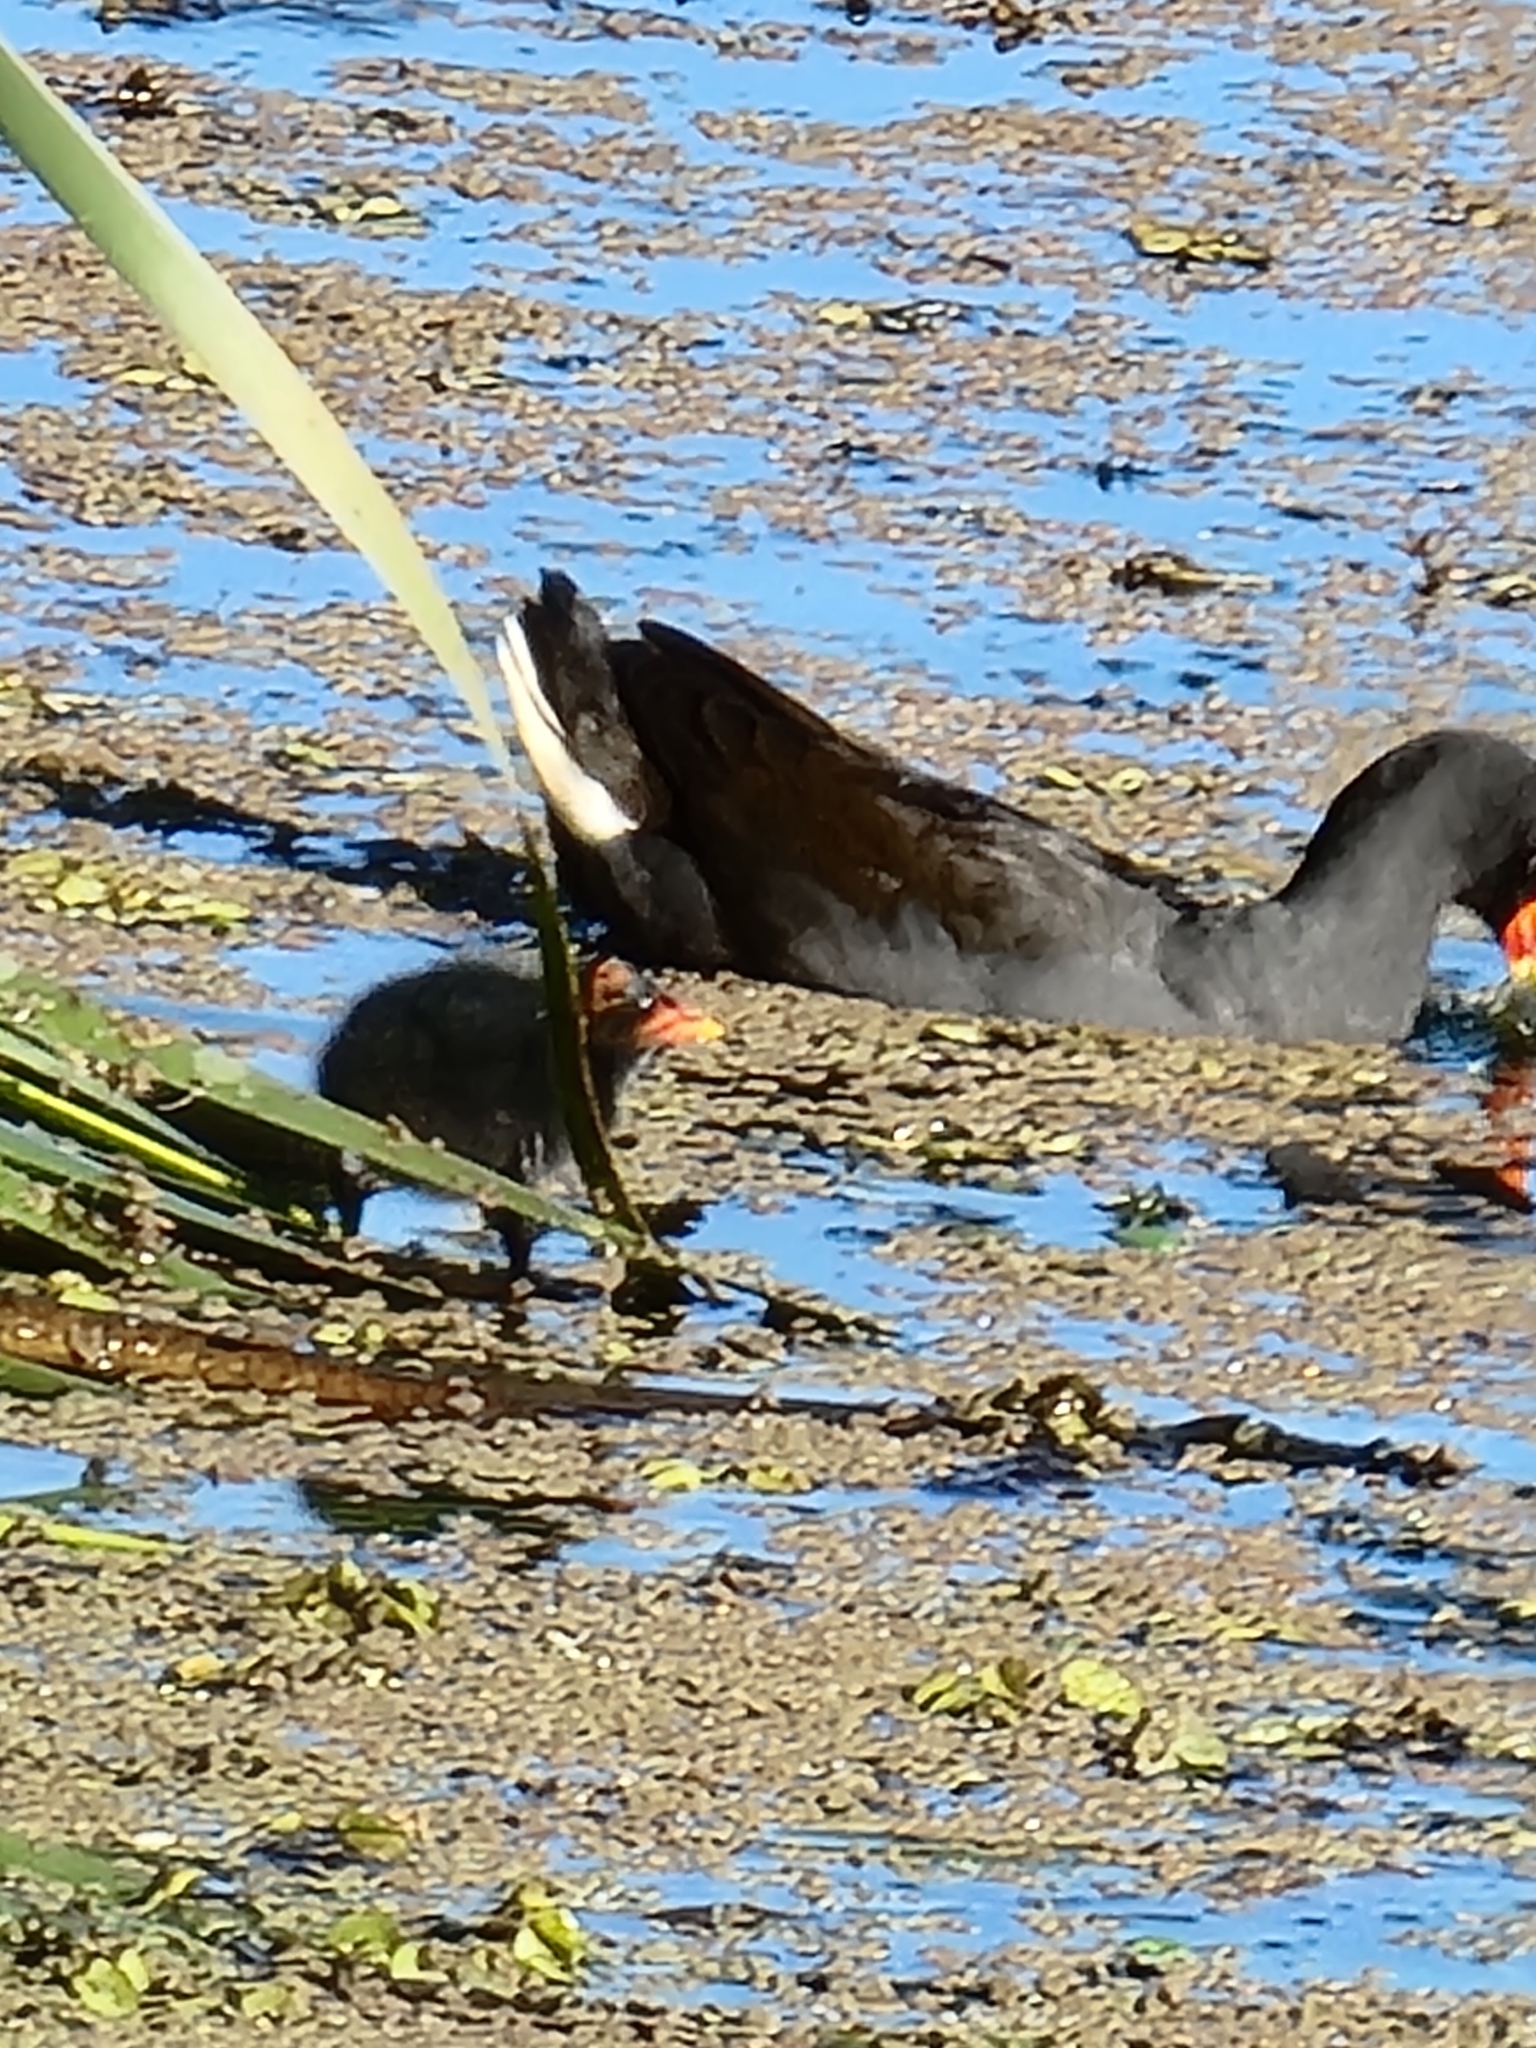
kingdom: Animalia
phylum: Chordata
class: Aves
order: Gruiformes
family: Rallidae
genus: Gallinula
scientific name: Gallinula tenebrosa
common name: Dusky moorhen
